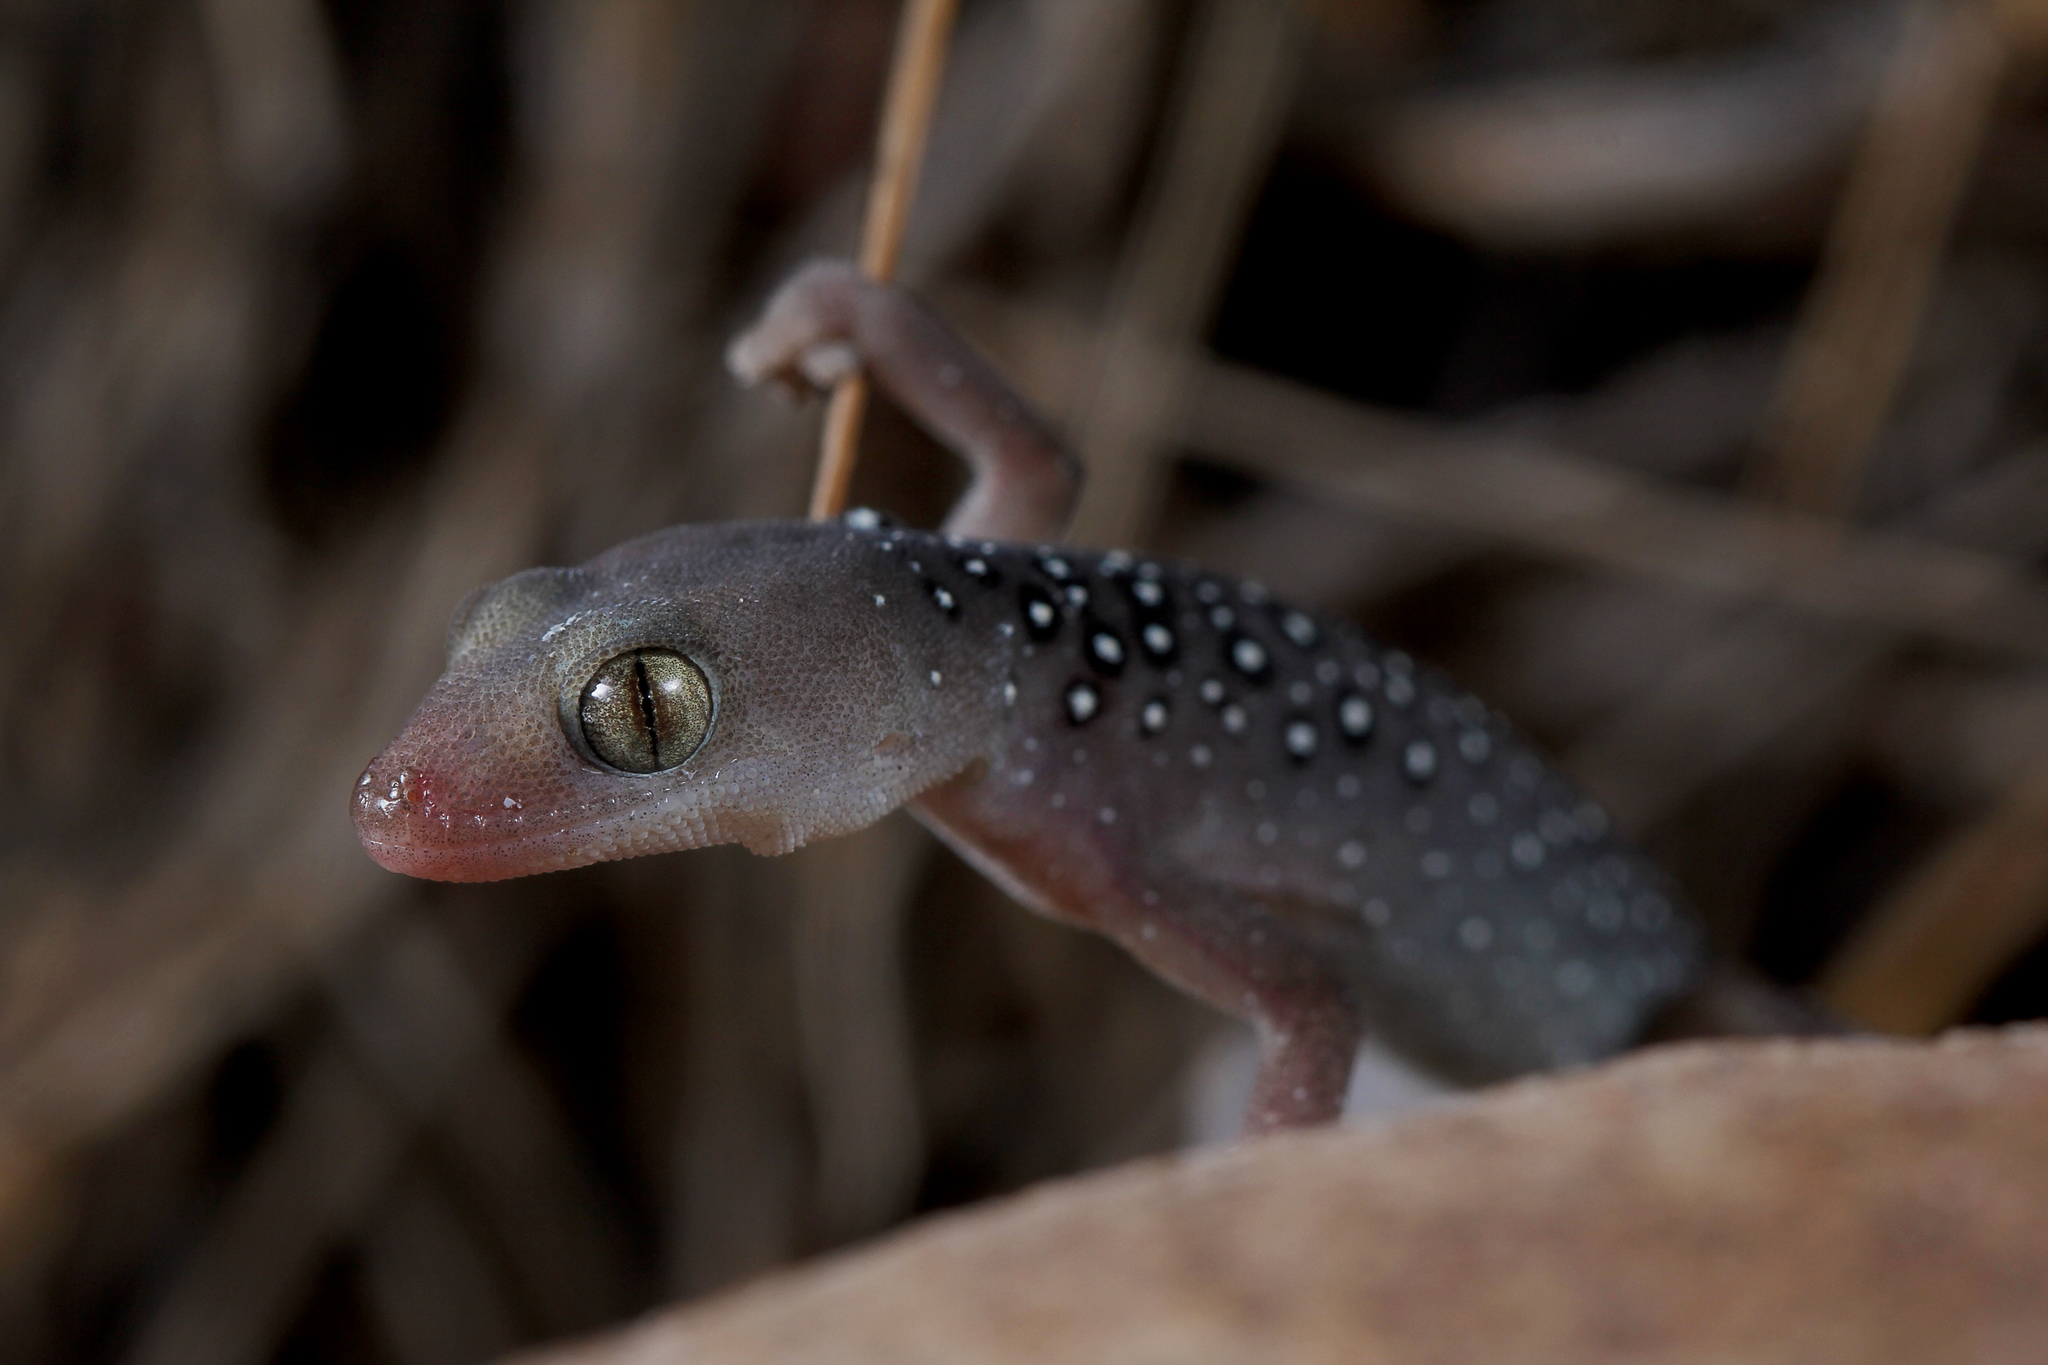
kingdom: Animalia
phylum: Chordata
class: Squamata
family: Diplodactylidae
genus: Strophurus
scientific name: Strophurus elderi
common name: Jewelled gecko
